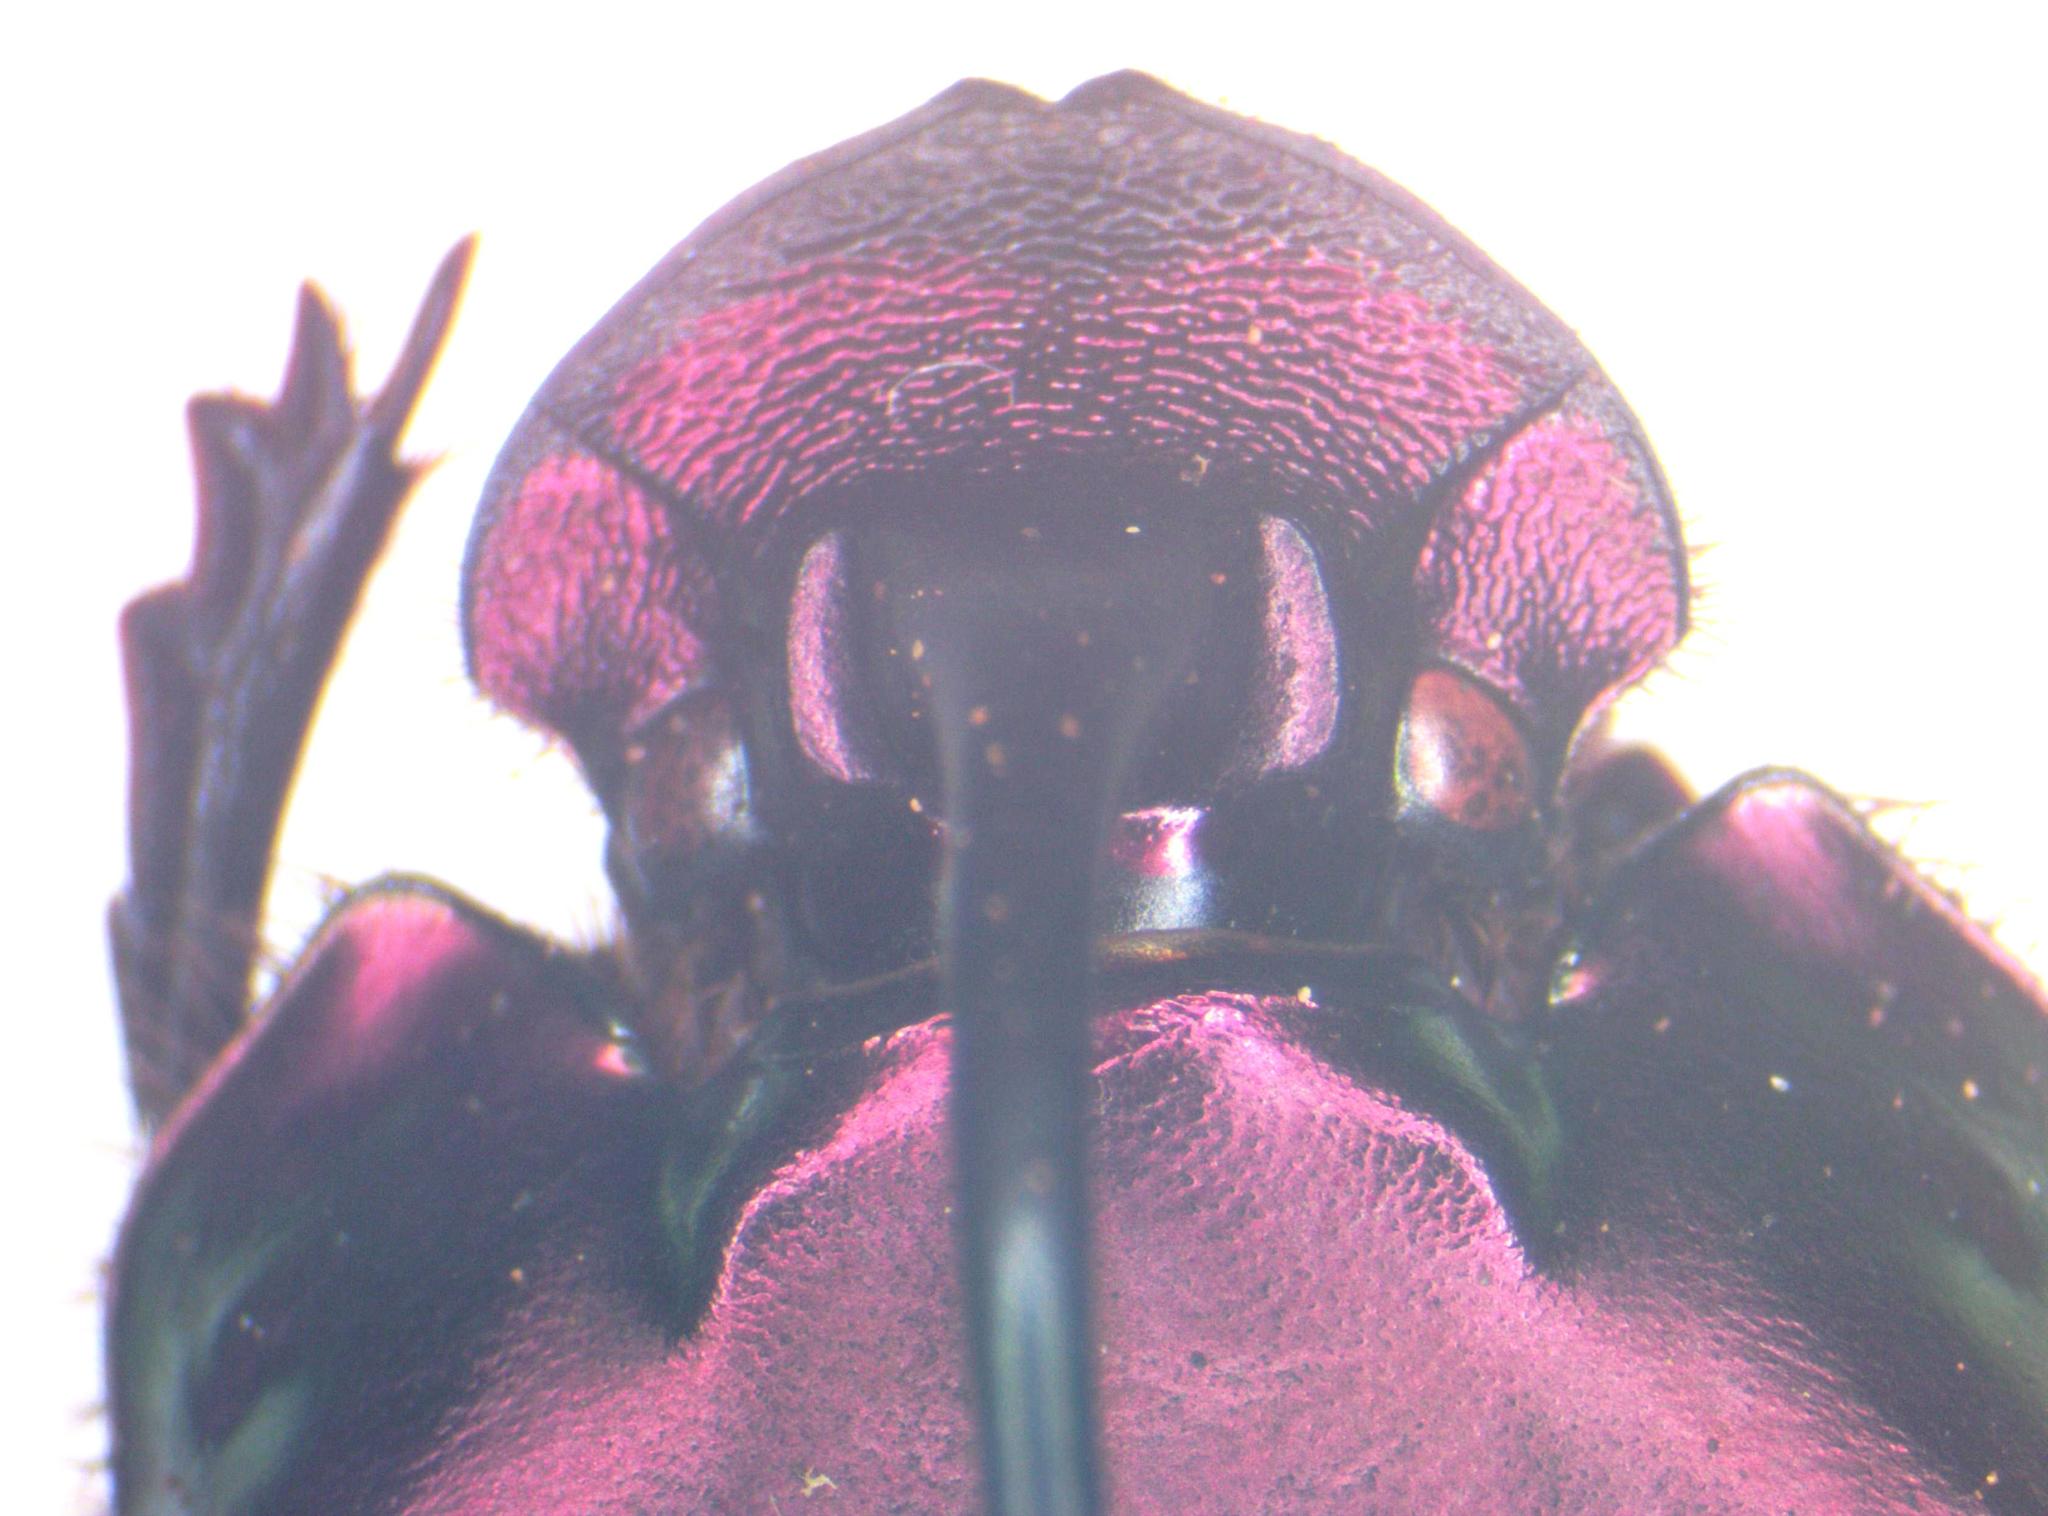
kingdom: Animalia
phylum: Arthropoda
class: Insecta
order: Coleoptera
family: Scarabaeidae
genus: Phanaeus
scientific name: Phanaeus pyrois
